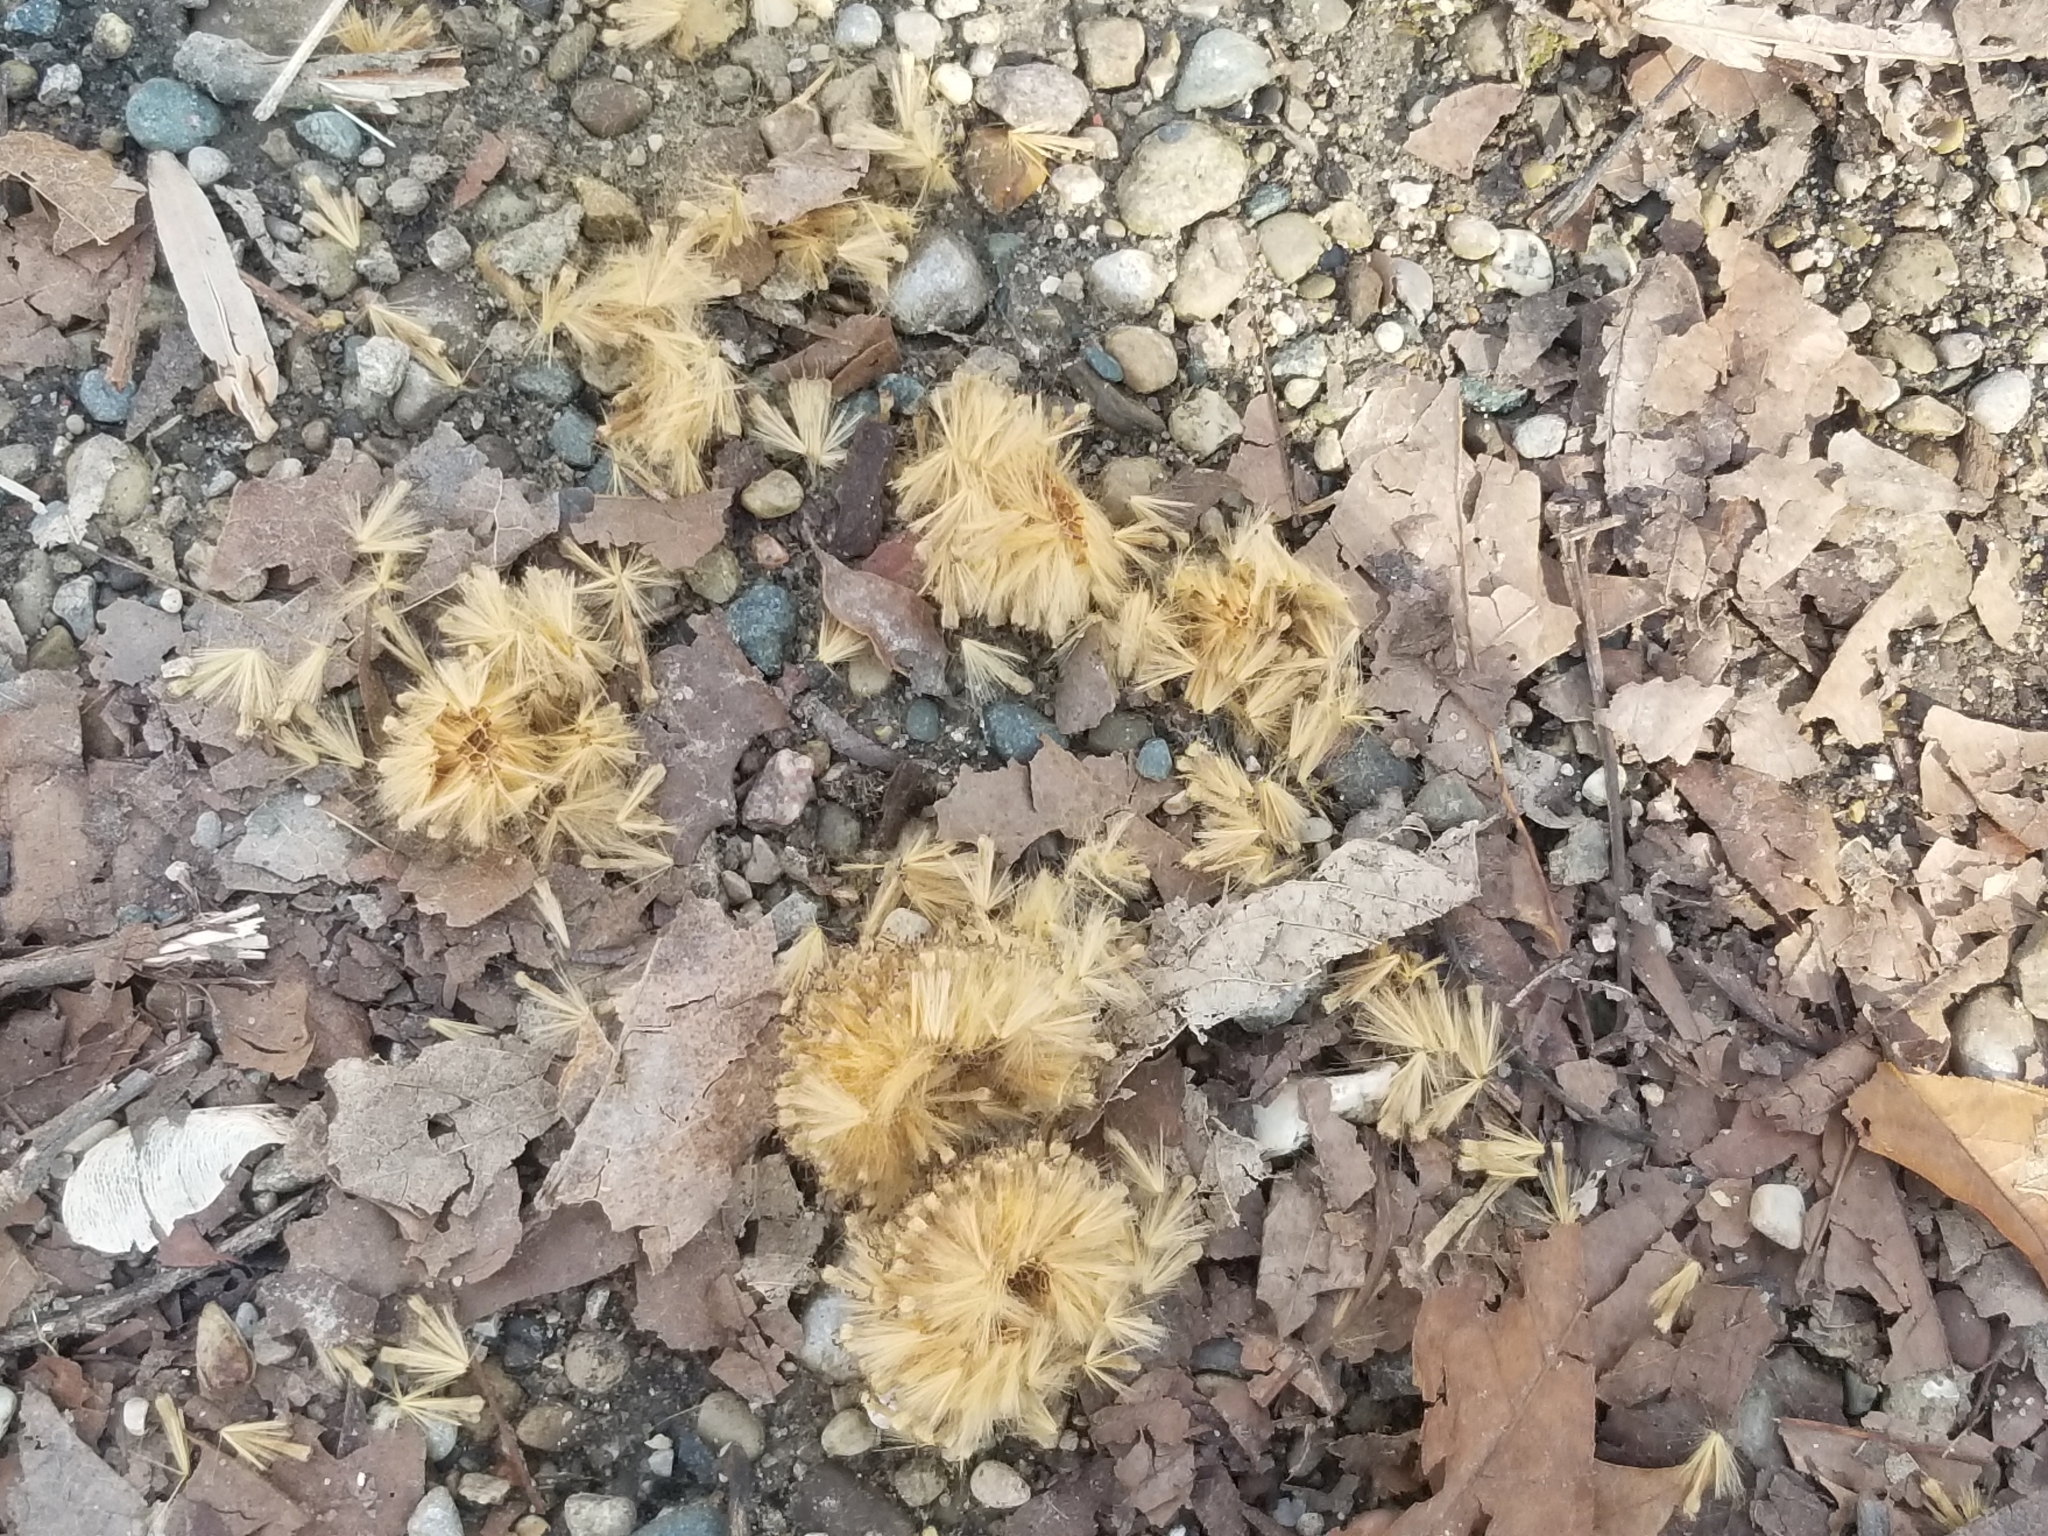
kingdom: Plantae
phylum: Tracheophyta
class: Magnoliopsida
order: Proteales
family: Platanaceae
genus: Platanus
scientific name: Platanus occidentalis
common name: American sycamore
